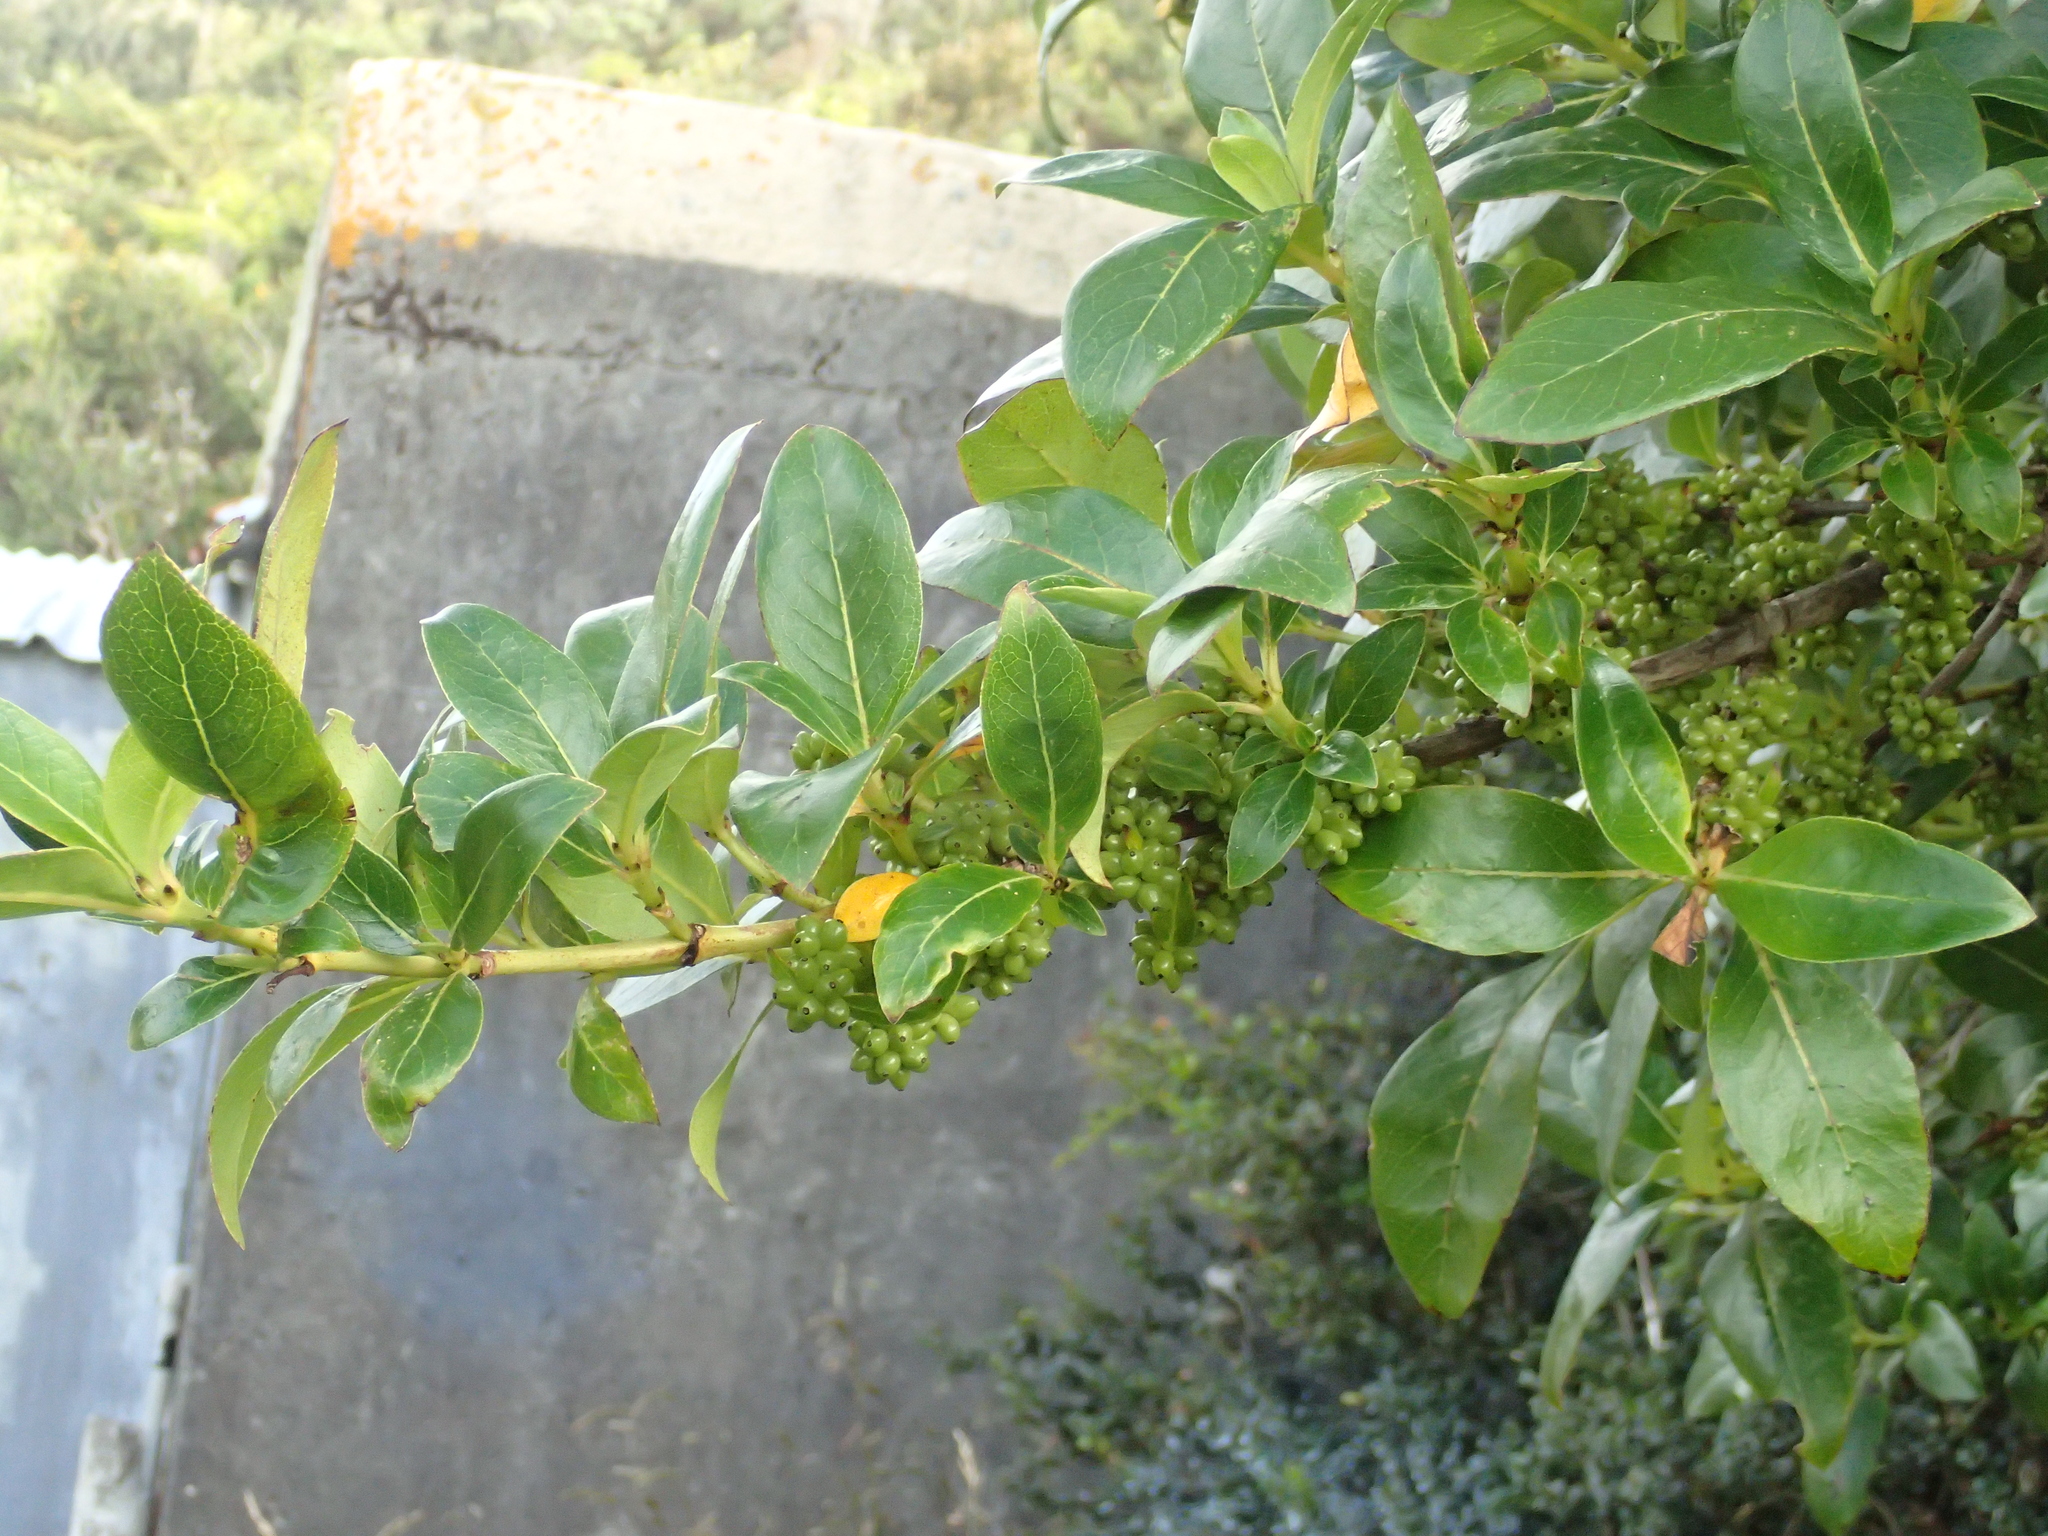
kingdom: Plantae
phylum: Tracheophyta
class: Magnoliopsida
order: Gentianales
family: Rubiaceae
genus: Coprosma
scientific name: Coprosma robusta
